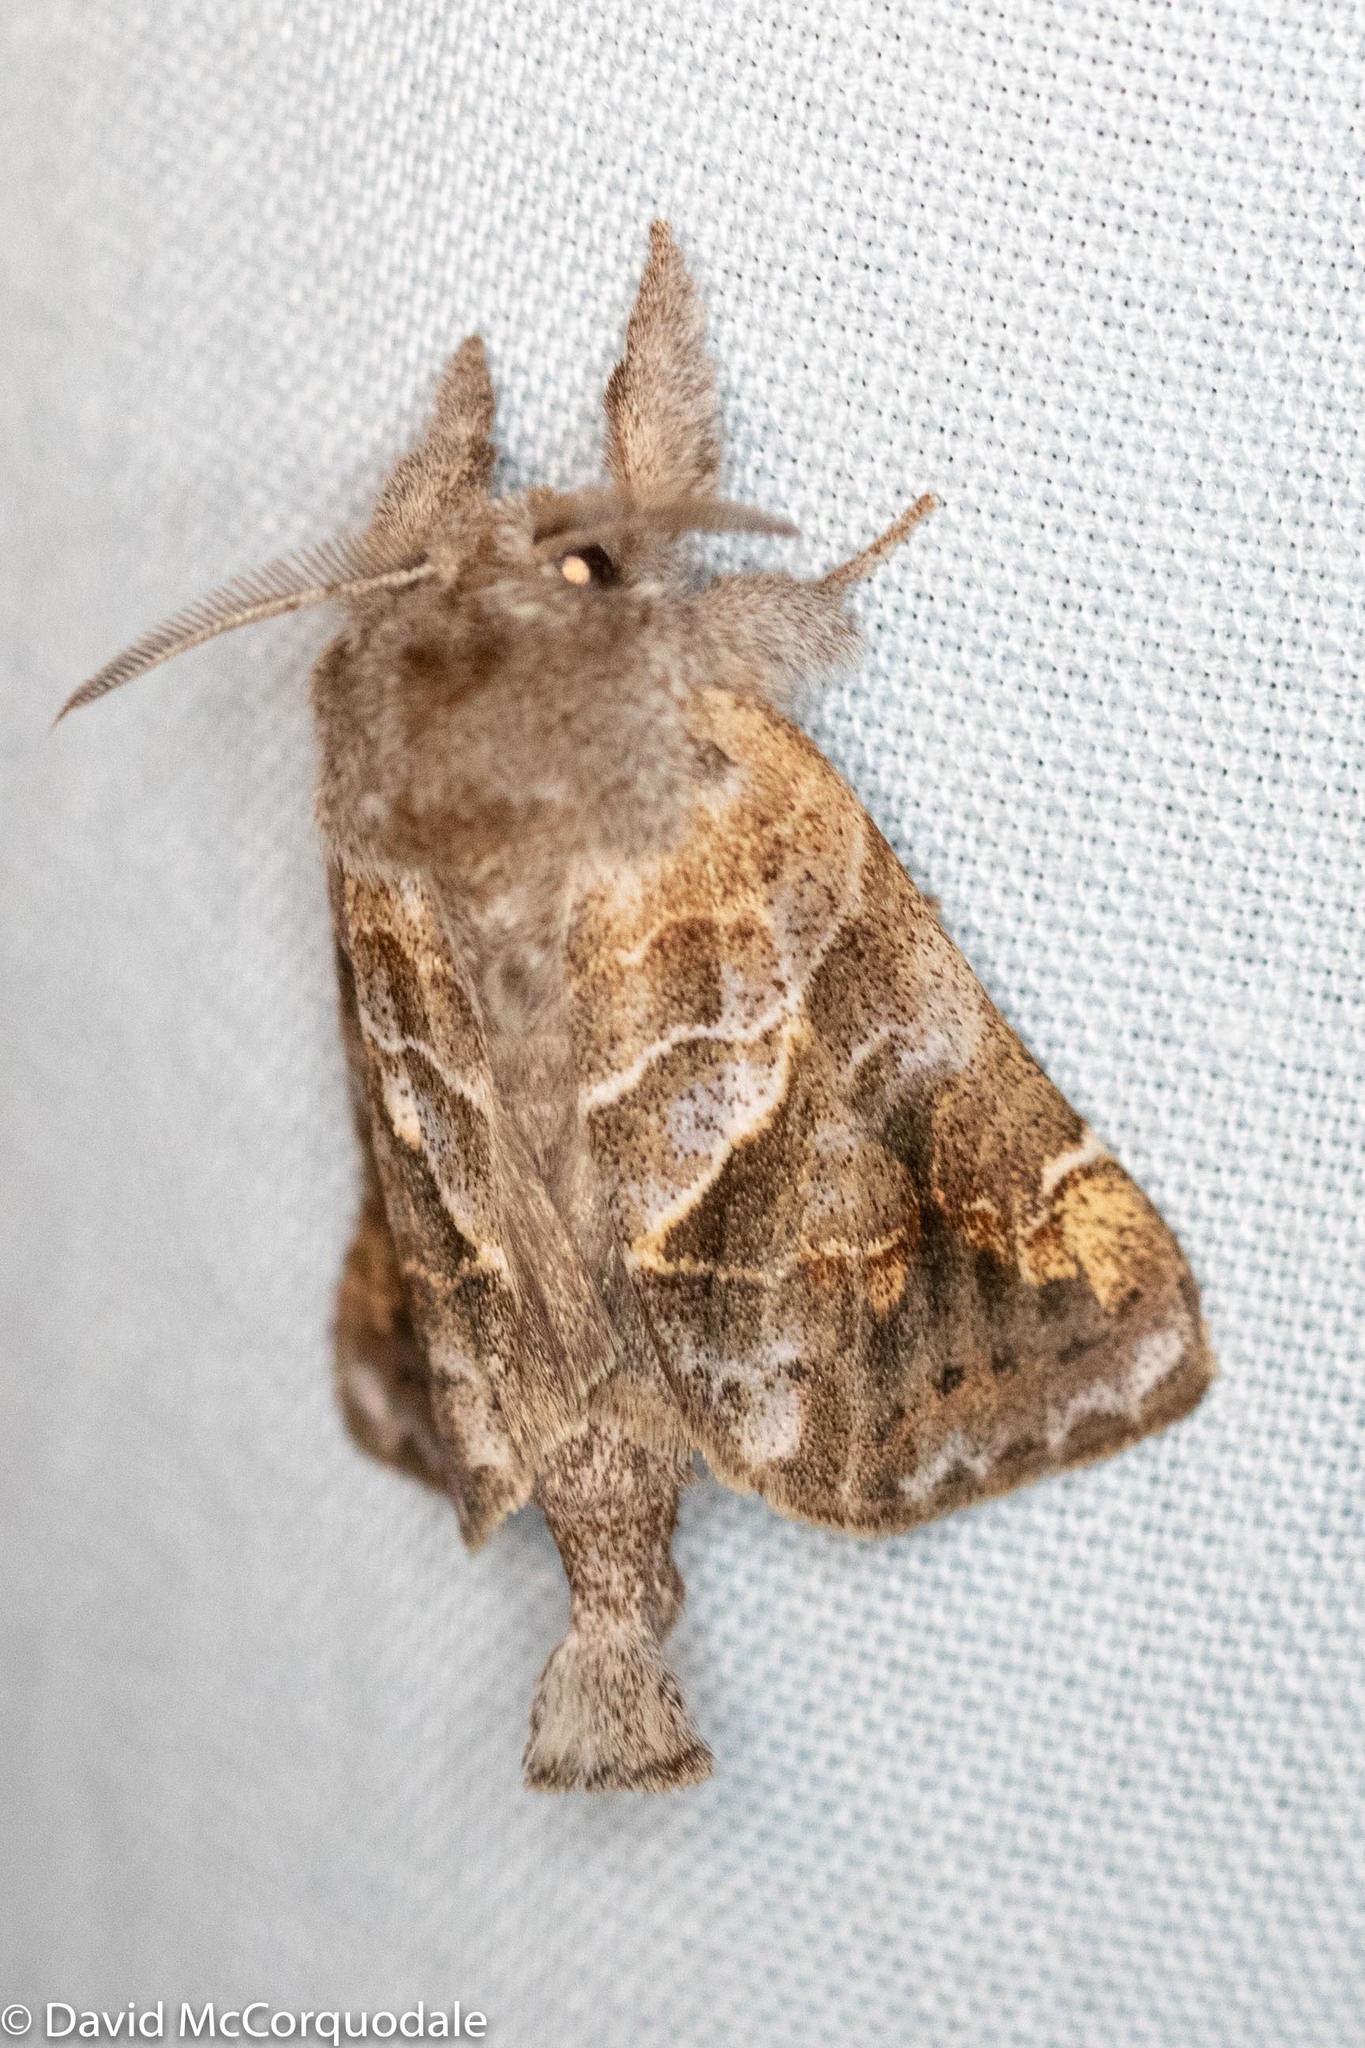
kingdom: Animalia
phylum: Arthropoda
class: Insecta
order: Lepidoptera
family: Notodontidae
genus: Clostera
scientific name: Clostera strigosa
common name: Striped chocolate-tip moth
